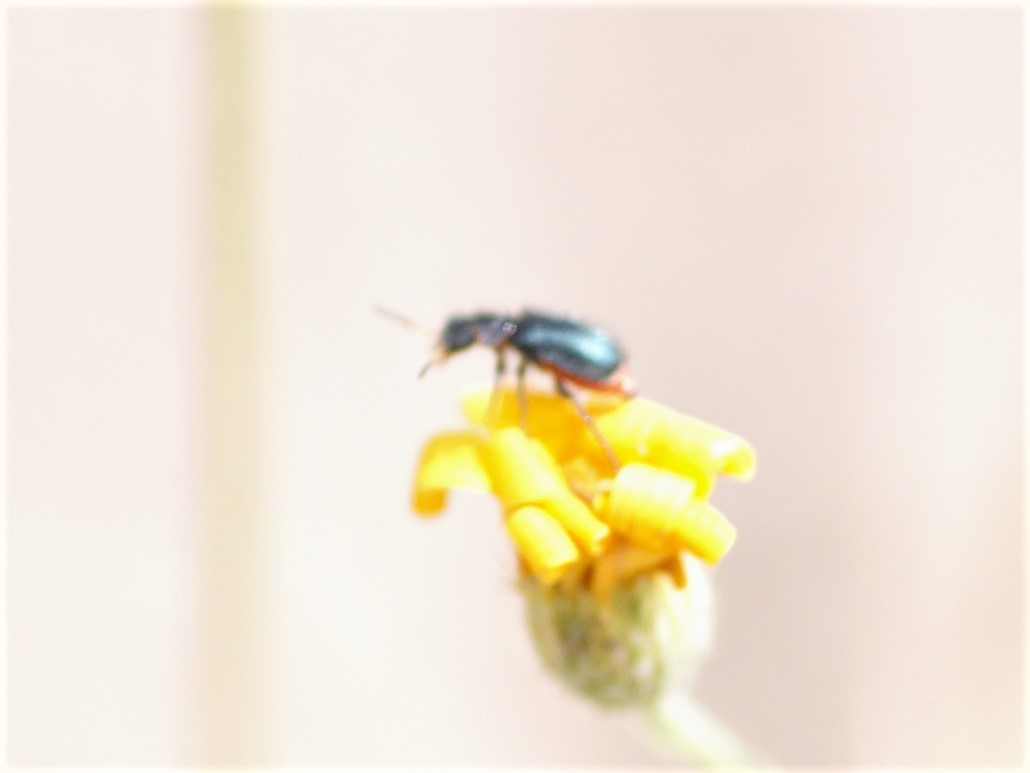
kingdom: Animalia
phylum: Arthropoda
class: Insecta
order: Coleoptera
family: Malachiidae
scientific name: Malachiidae
